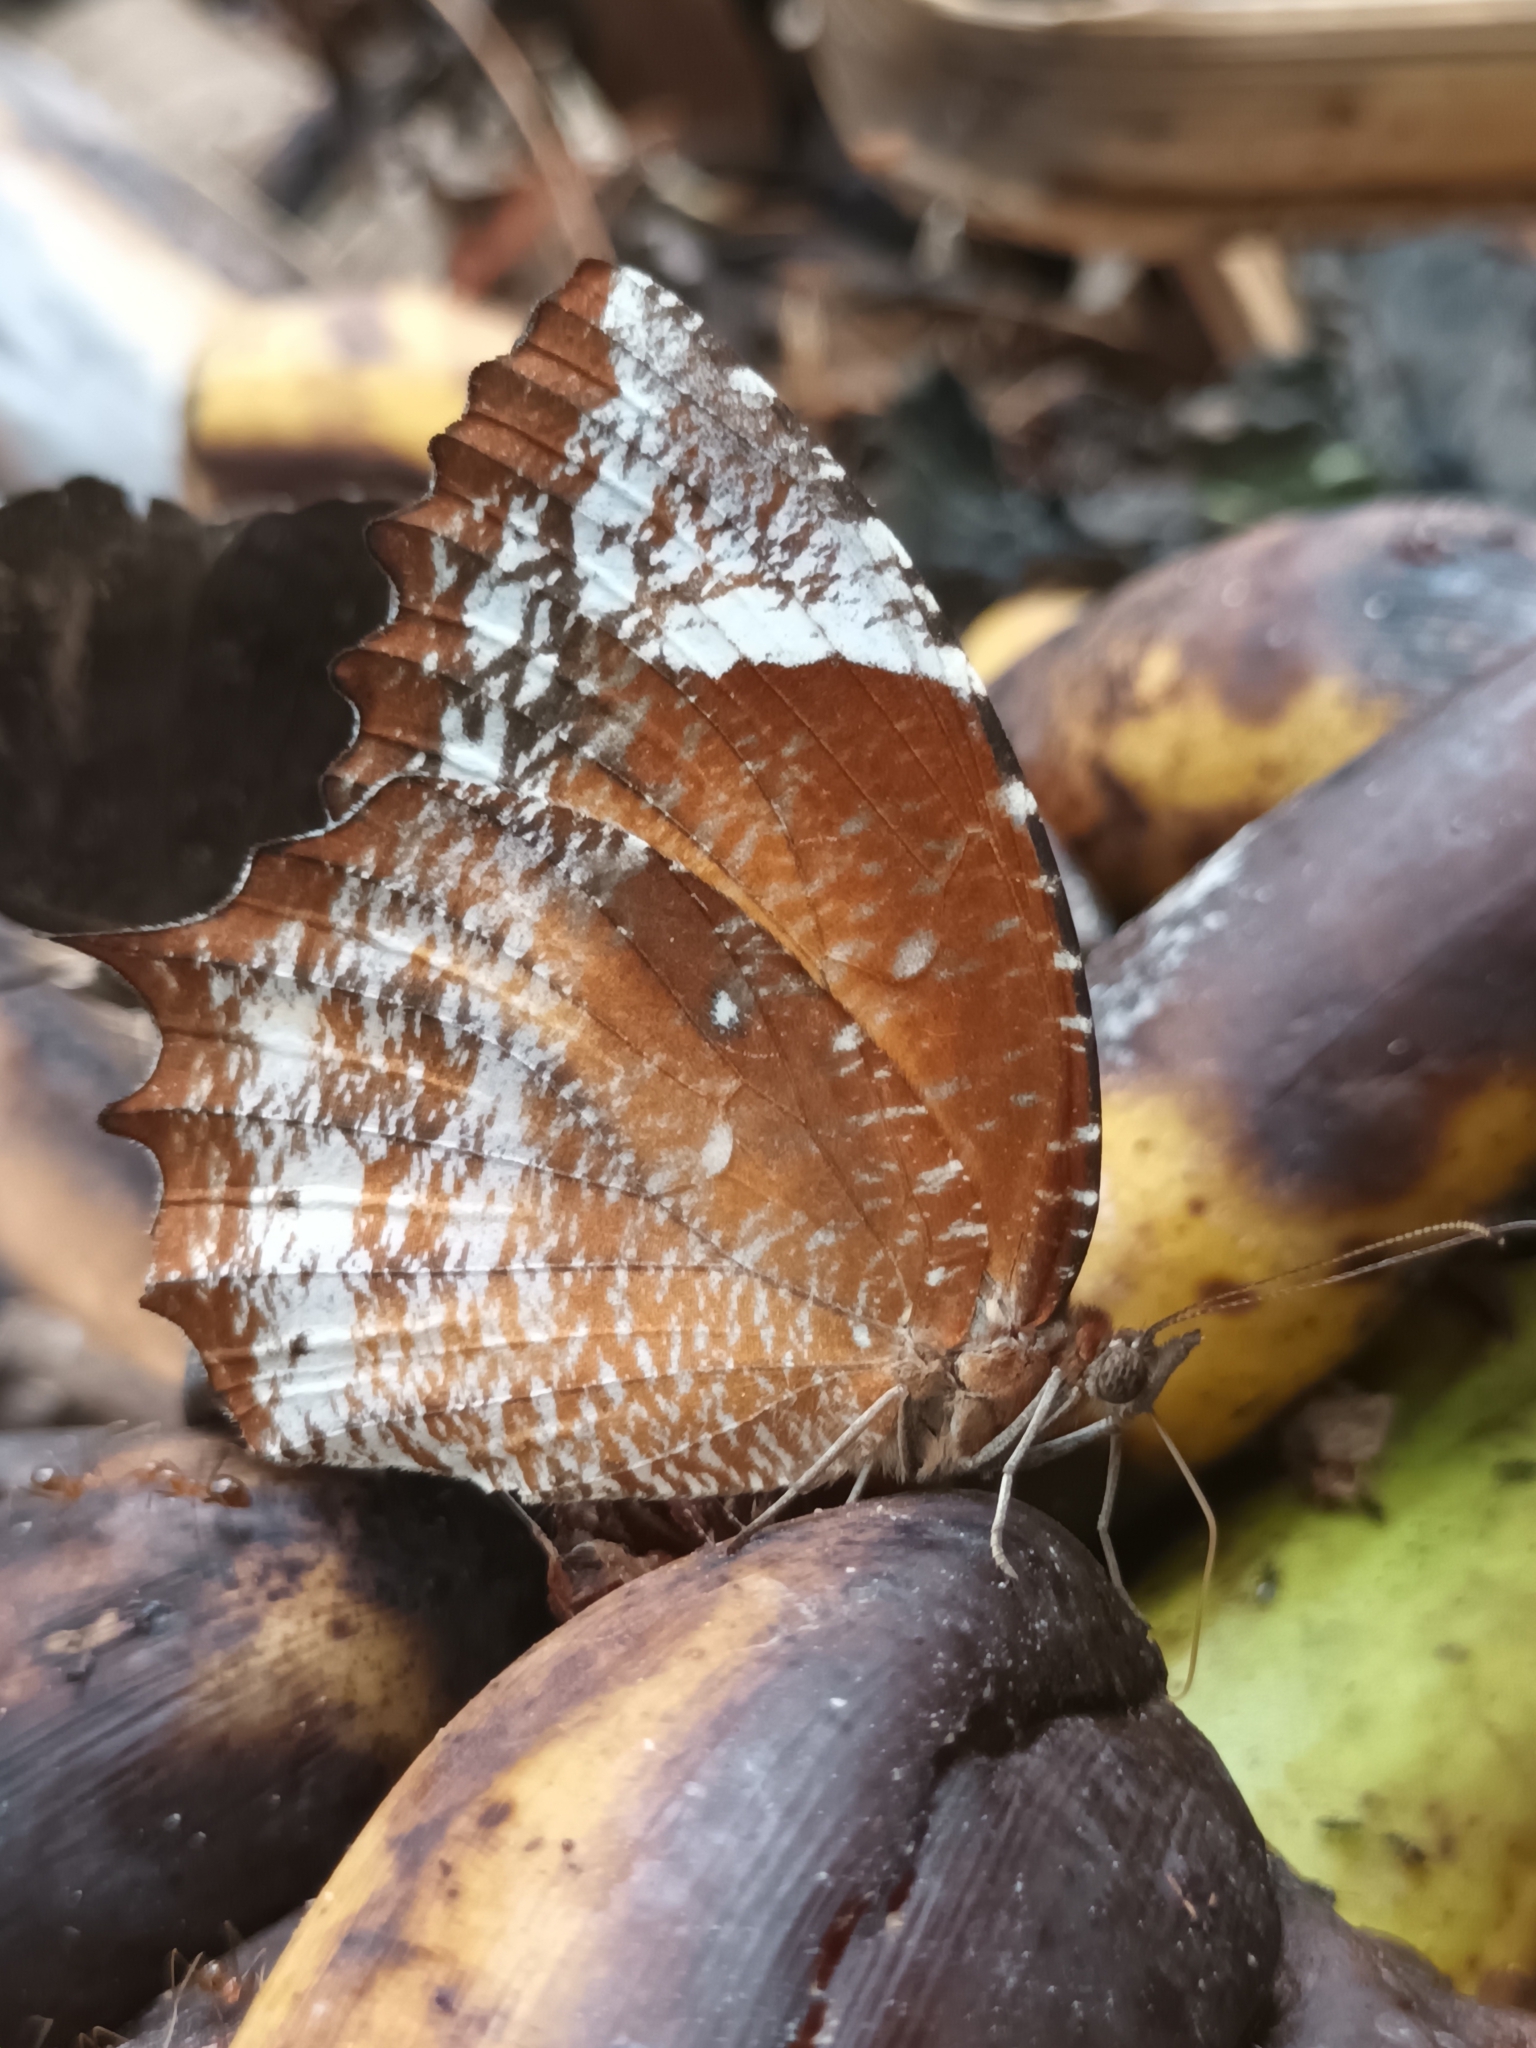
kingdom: Animalia
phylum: Arthropoda
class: Insecta
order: Lepidoptera
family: Nymphalidae
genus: Elymnias
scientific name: Elymnias caudata
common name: Tailed palmfly
